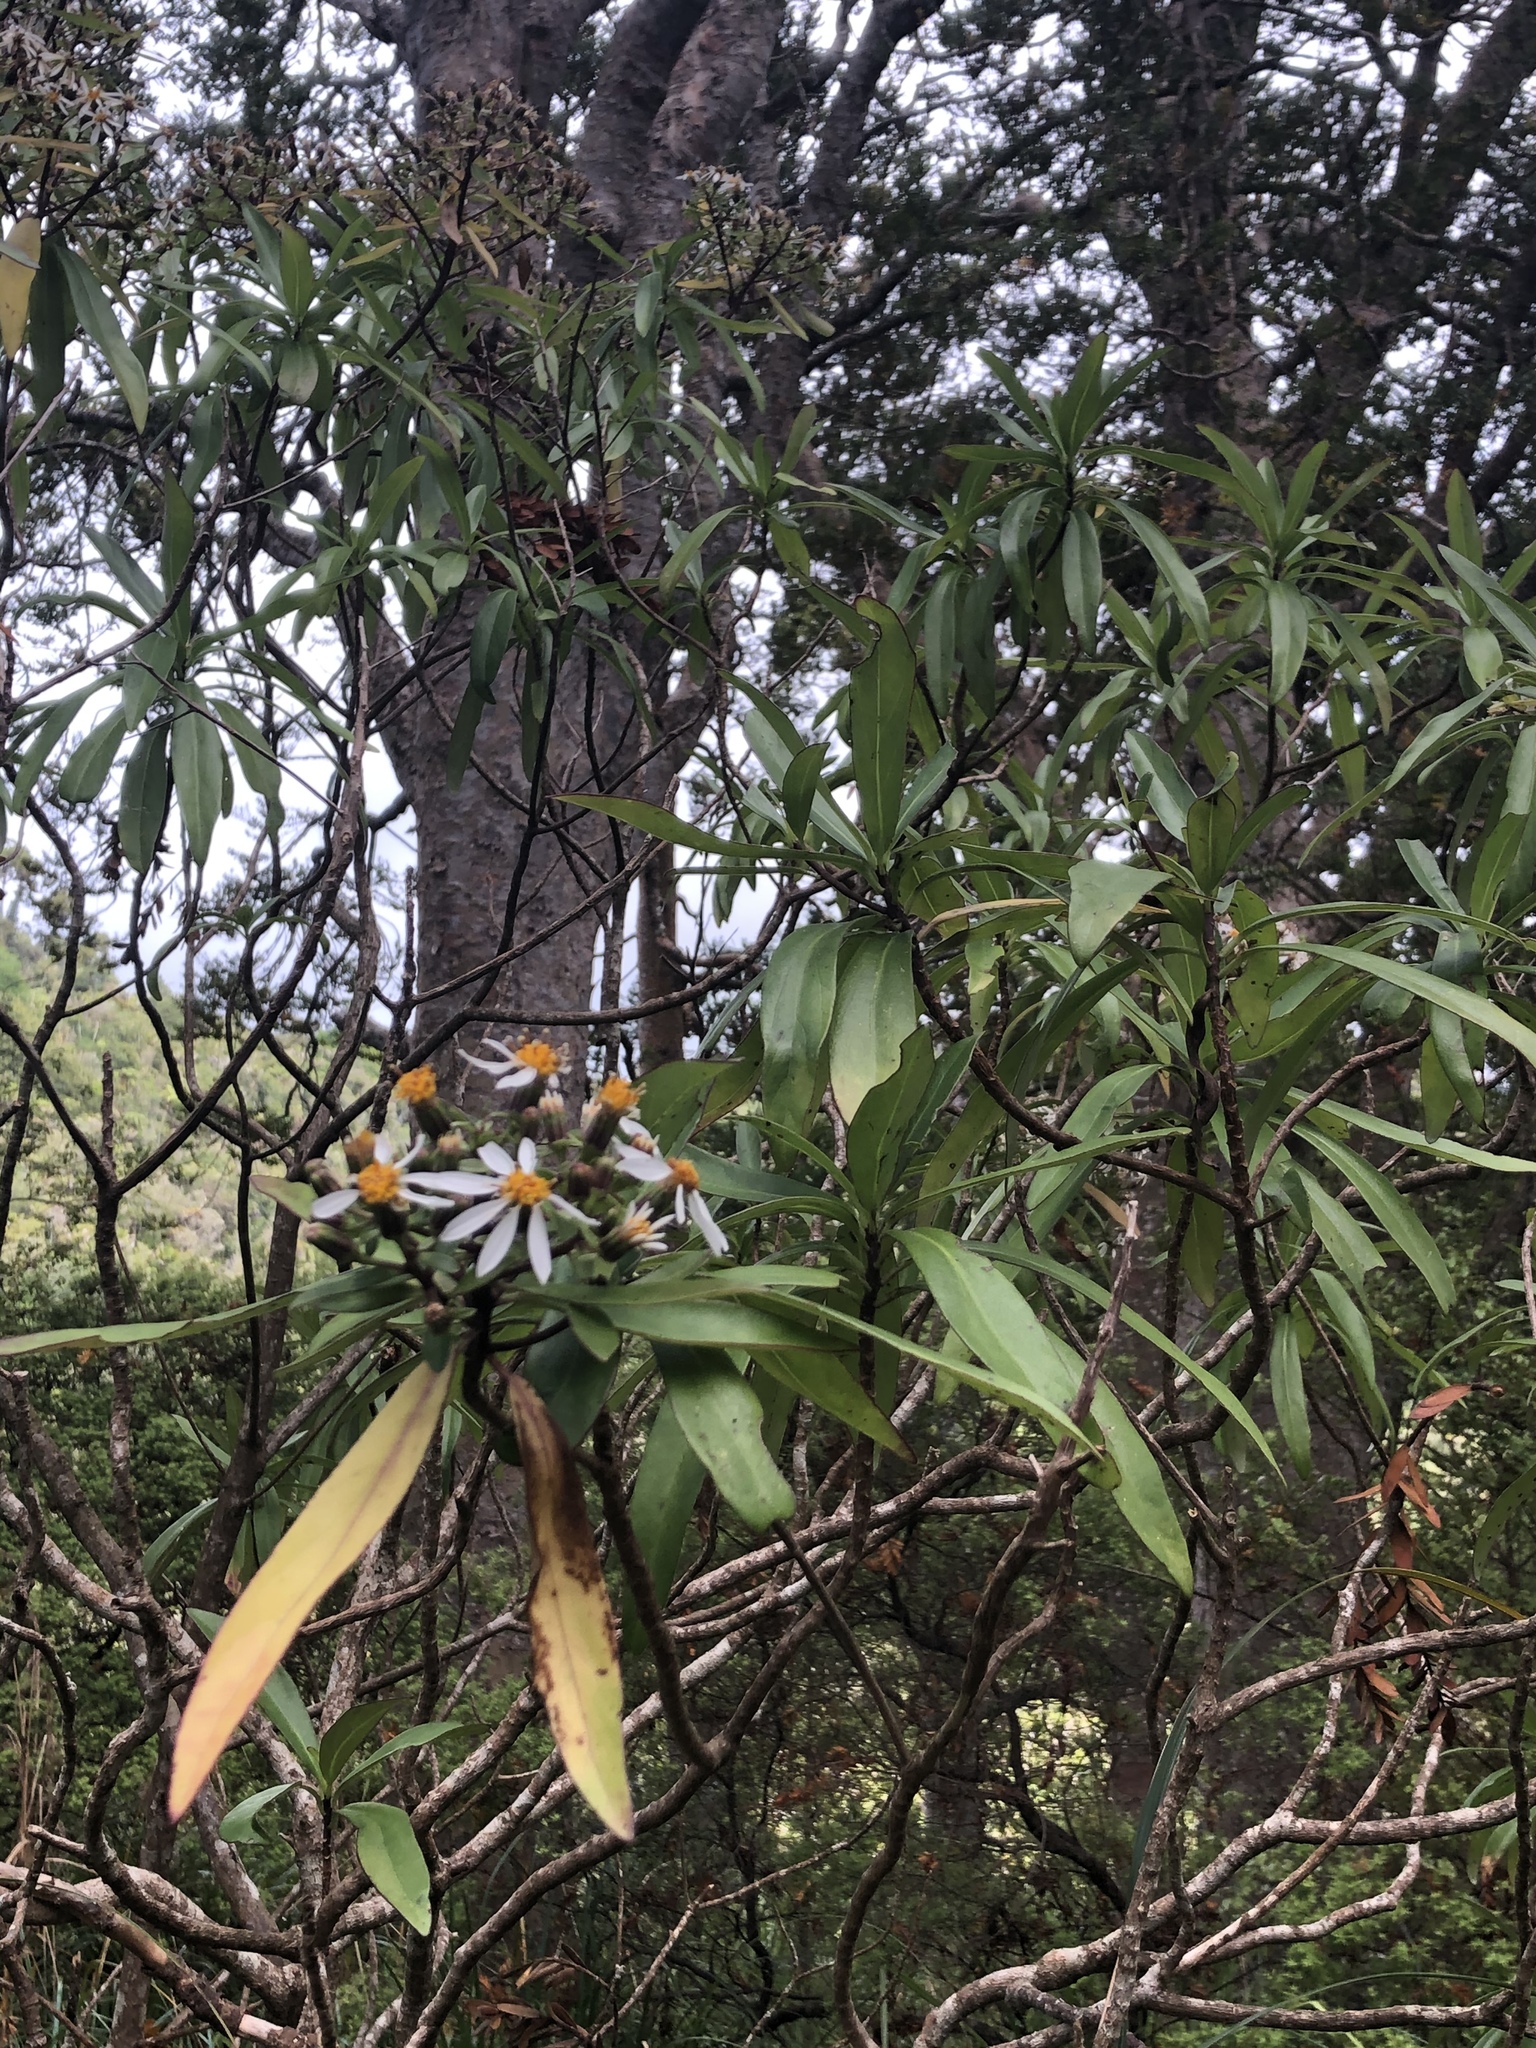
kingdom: Plantae
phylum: Tracheophyta
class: Magnoliopsida
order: Asterales
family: Asteraceae
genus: Brachyglottis
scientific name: Brachyglottis kirkii
